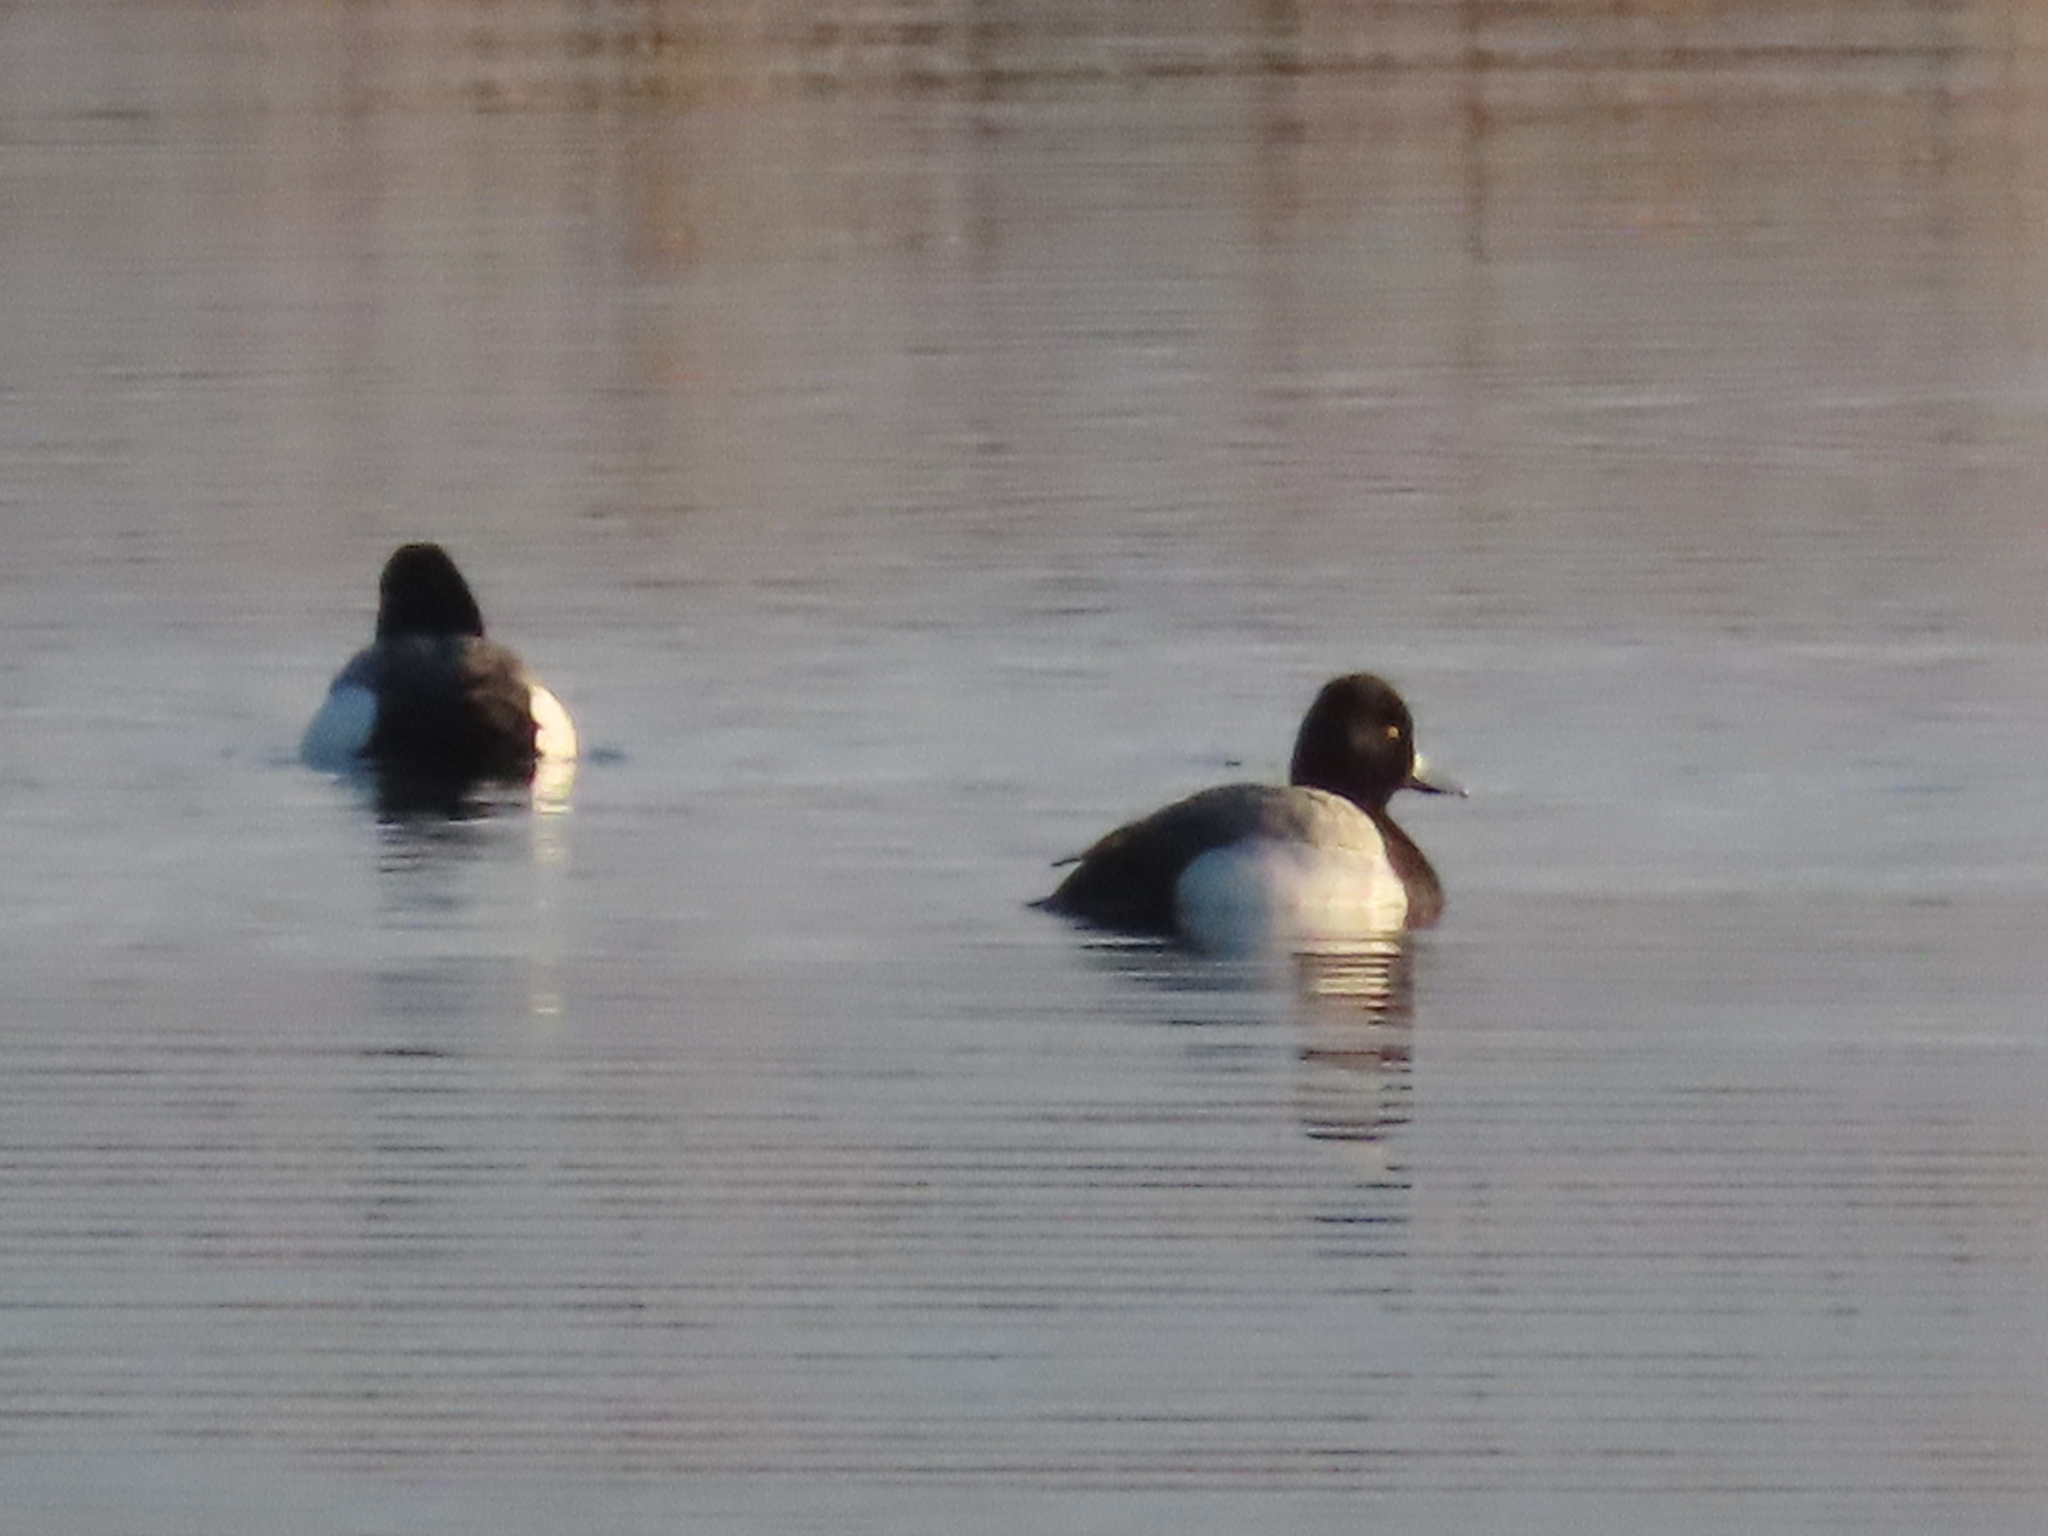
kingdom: Animalia
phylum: Chordata
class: Aves
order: Anseriformes
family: Anatidae
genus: Aythya
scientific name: Aythya affinis
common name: Lesser scaup
